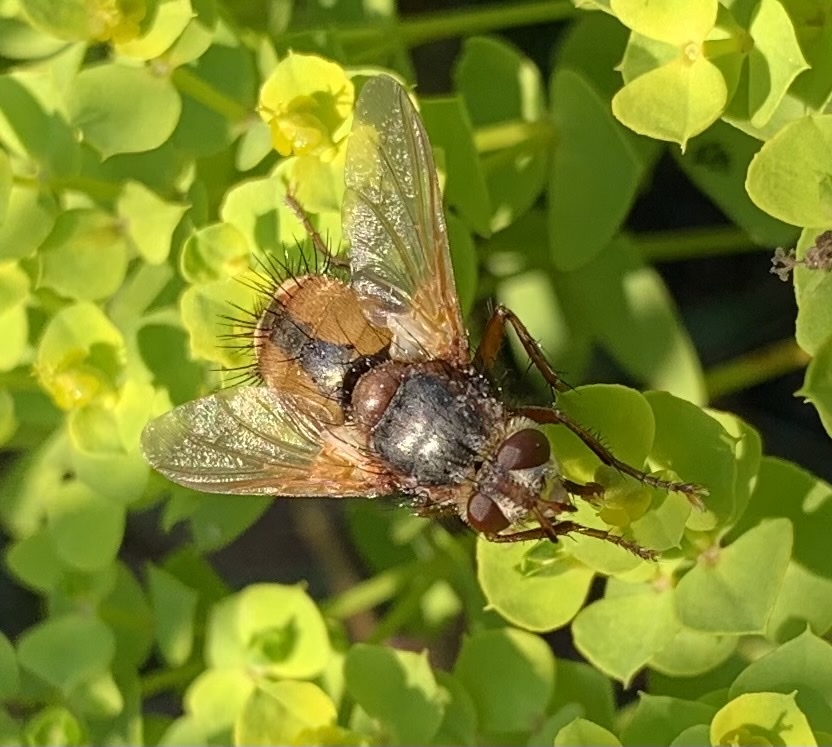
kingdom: Animalia
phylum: Arthropoda
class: Insecta
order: Diptera
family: Tachinidae
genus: Tachina
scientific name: Tachina fera
